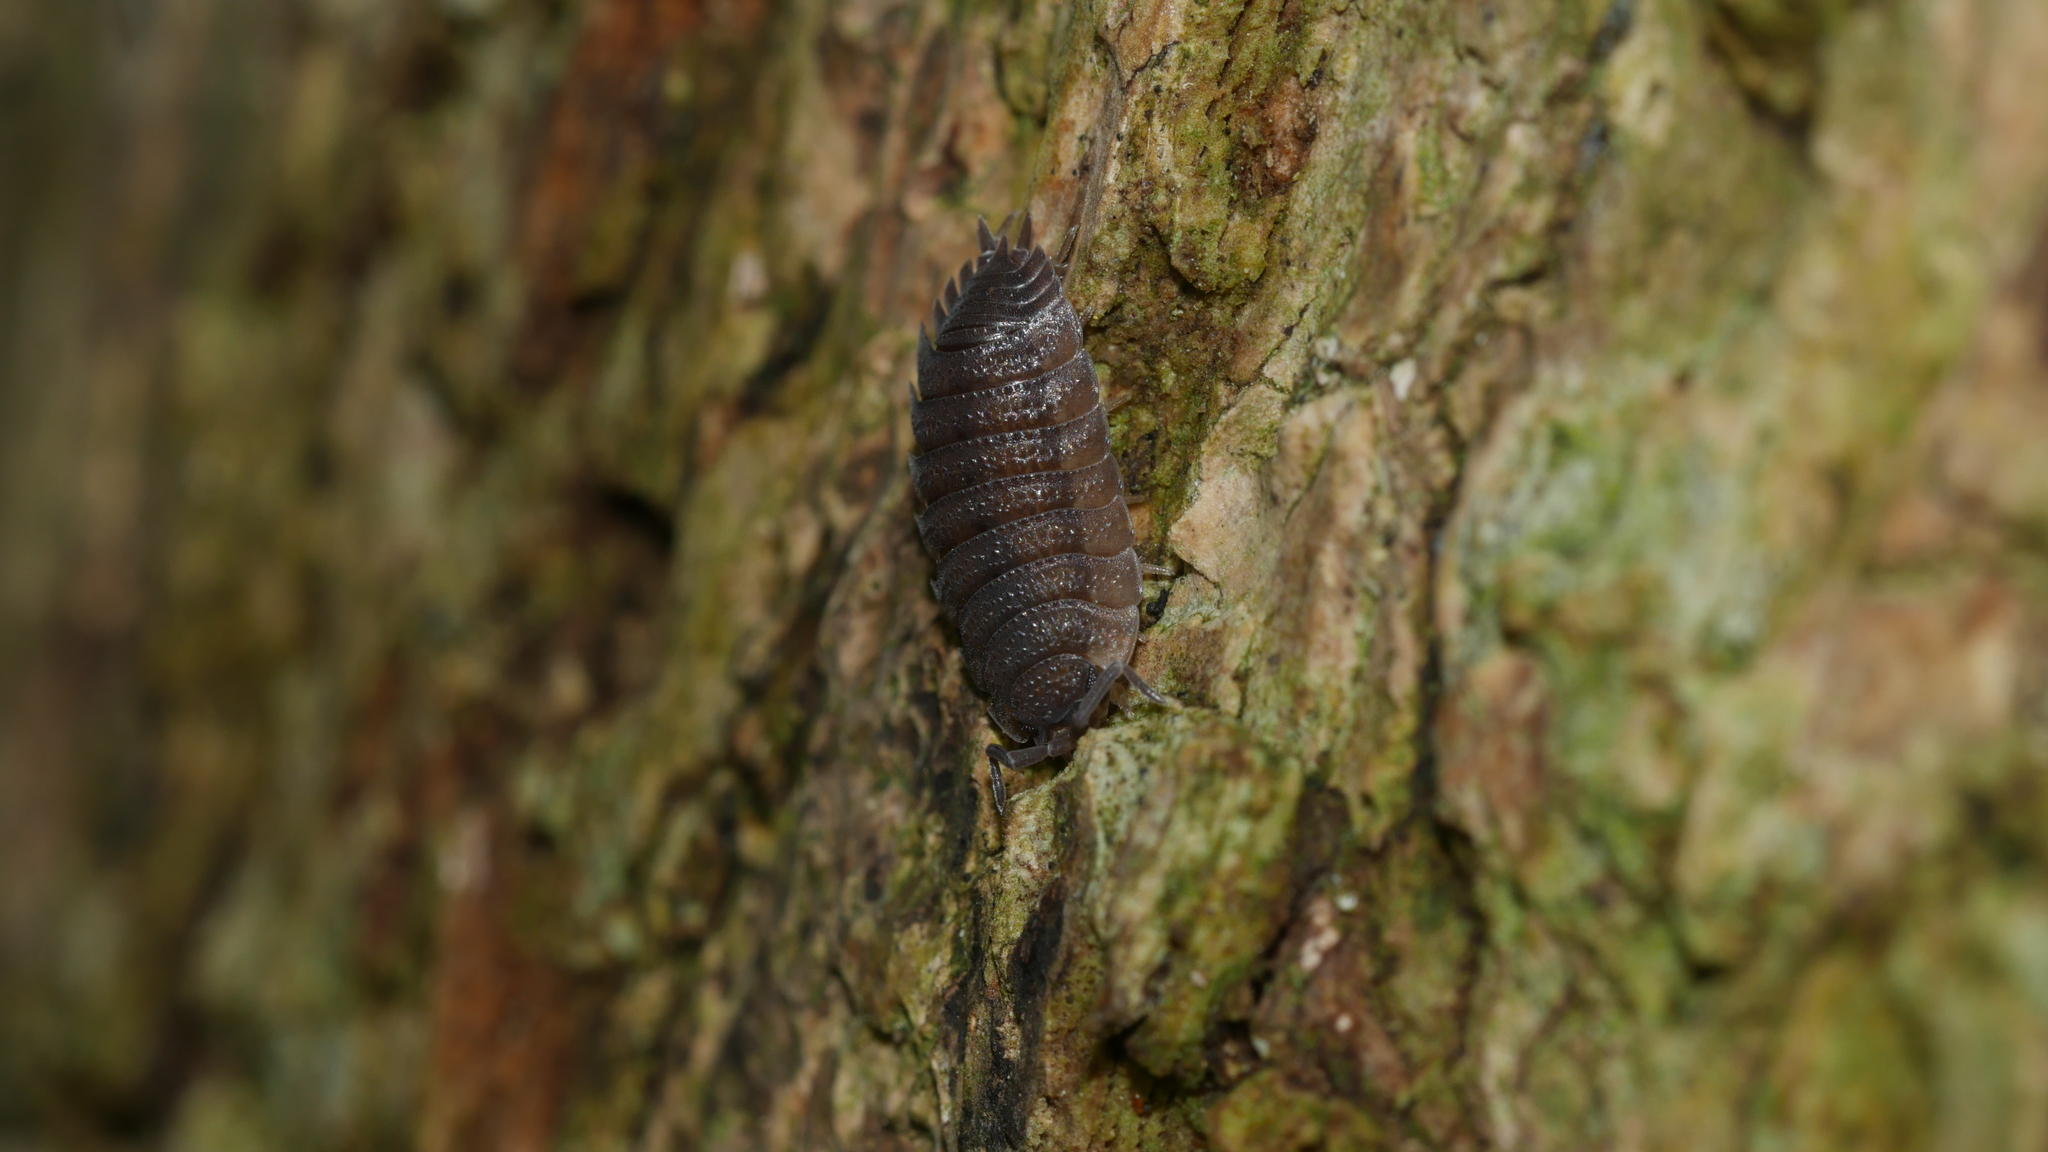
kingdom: Animalia
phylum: Arthropoda
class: Malacostraca
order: Isopoda
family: Porcellionidae
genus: Porcellio
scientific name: Porcellio scaber
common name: Common rough woodlouse
